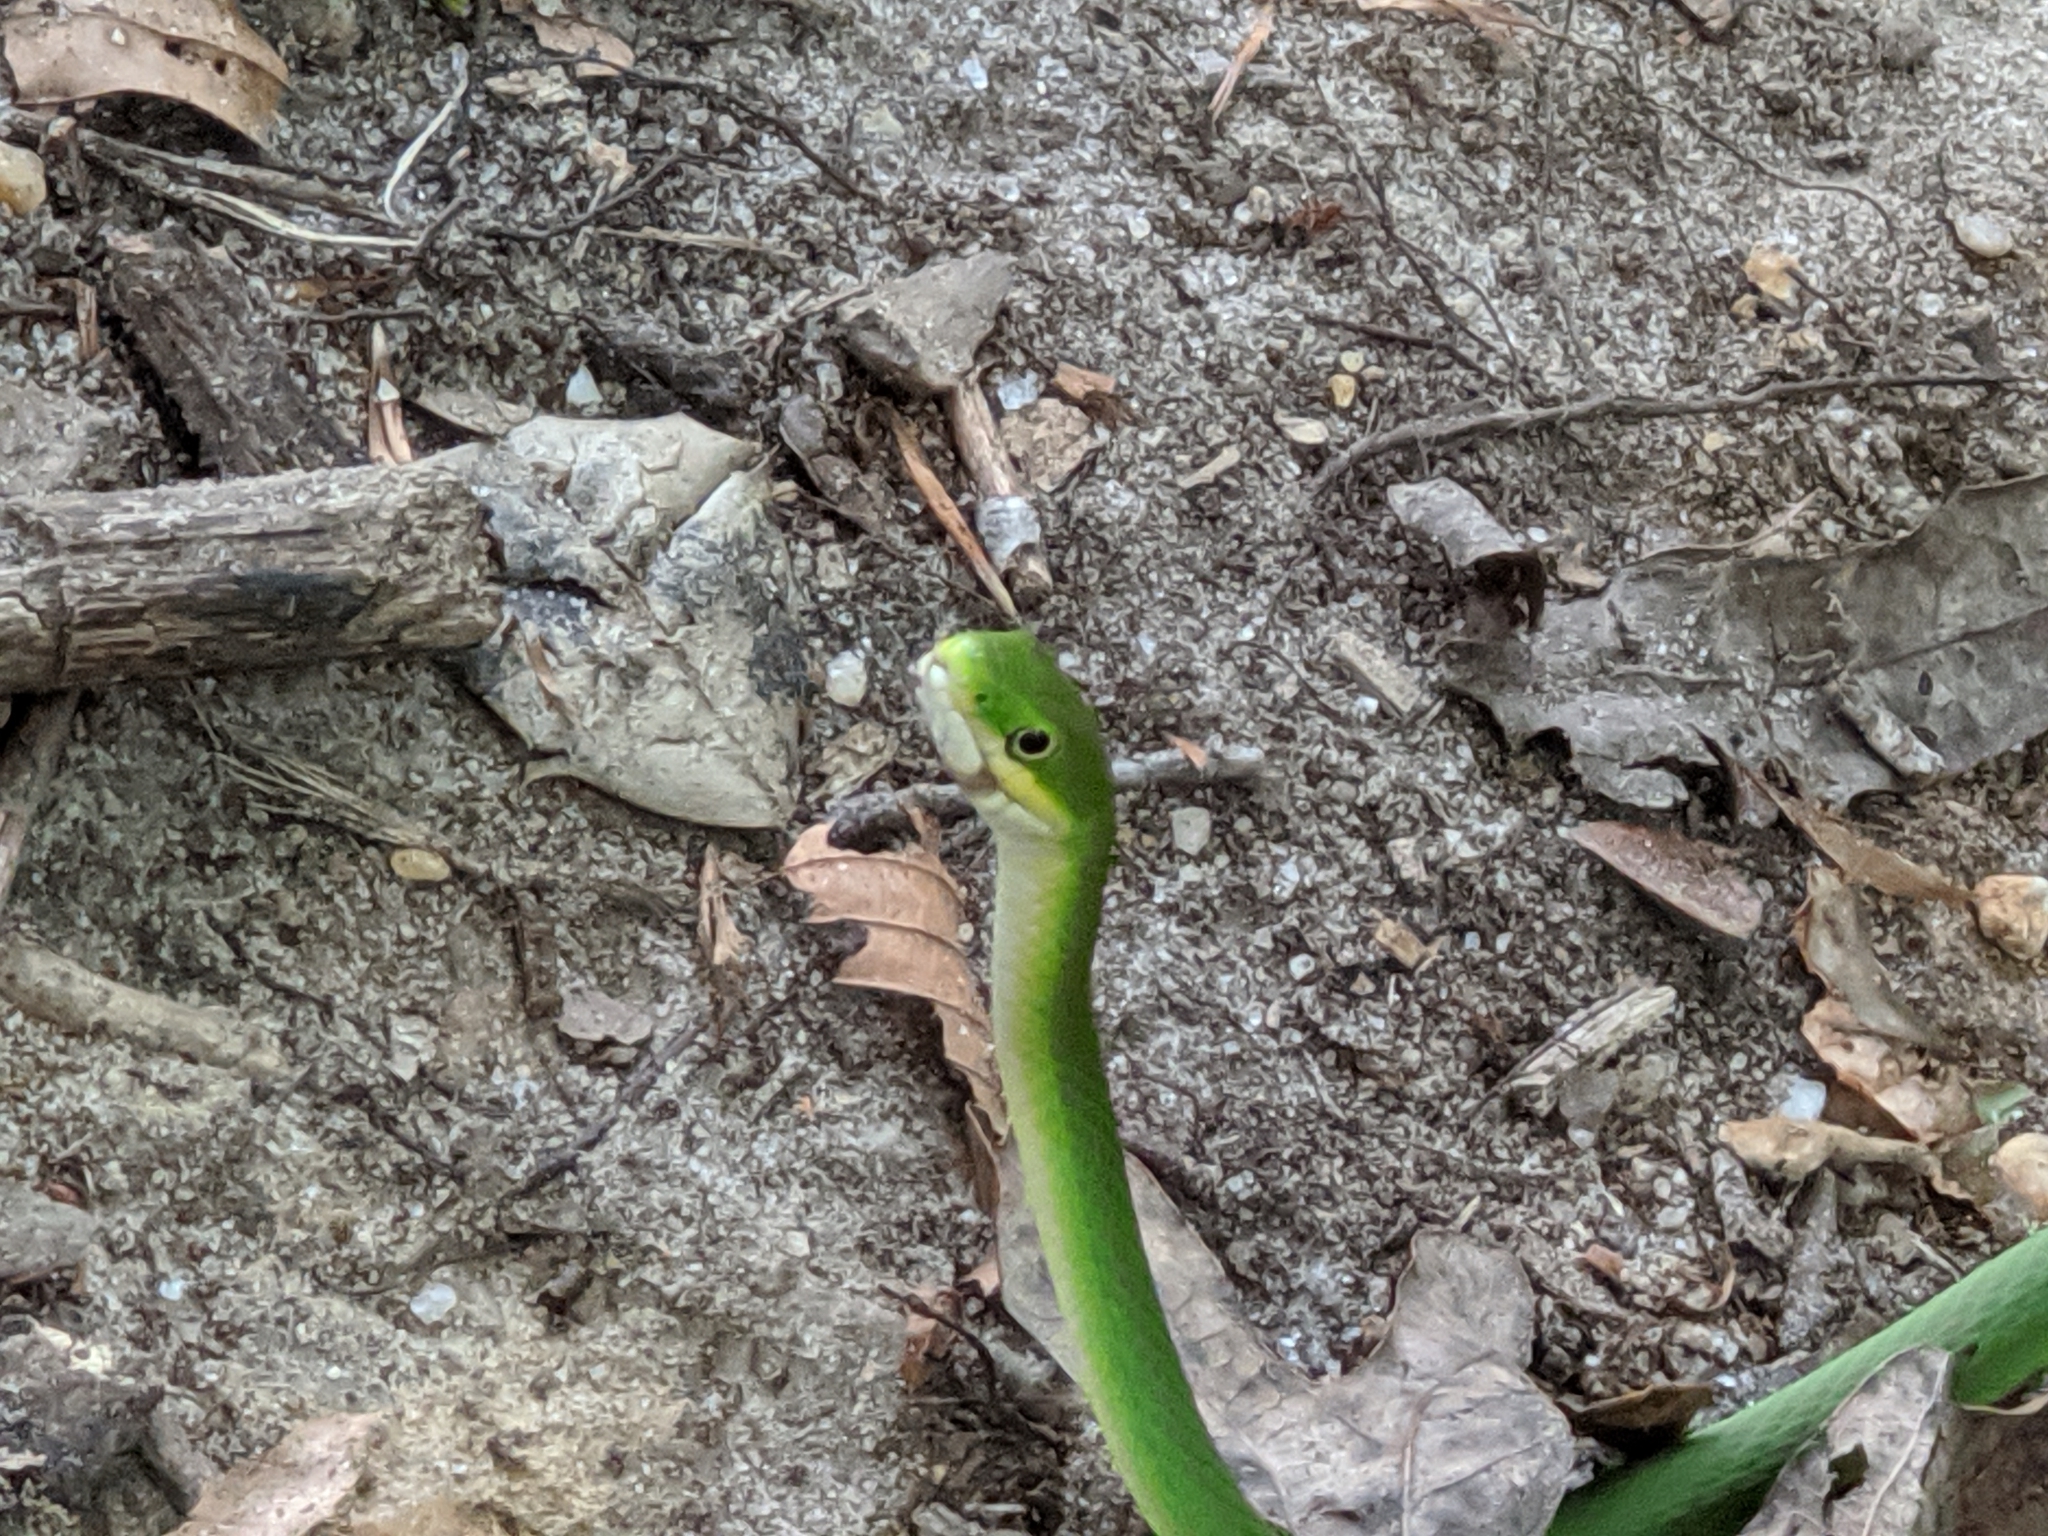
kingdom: Animalia
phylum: Chordata
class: Squamata
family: Colubridae
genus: Opheodrys
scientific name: Opheodrys aestivus
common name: Rough greensnake
